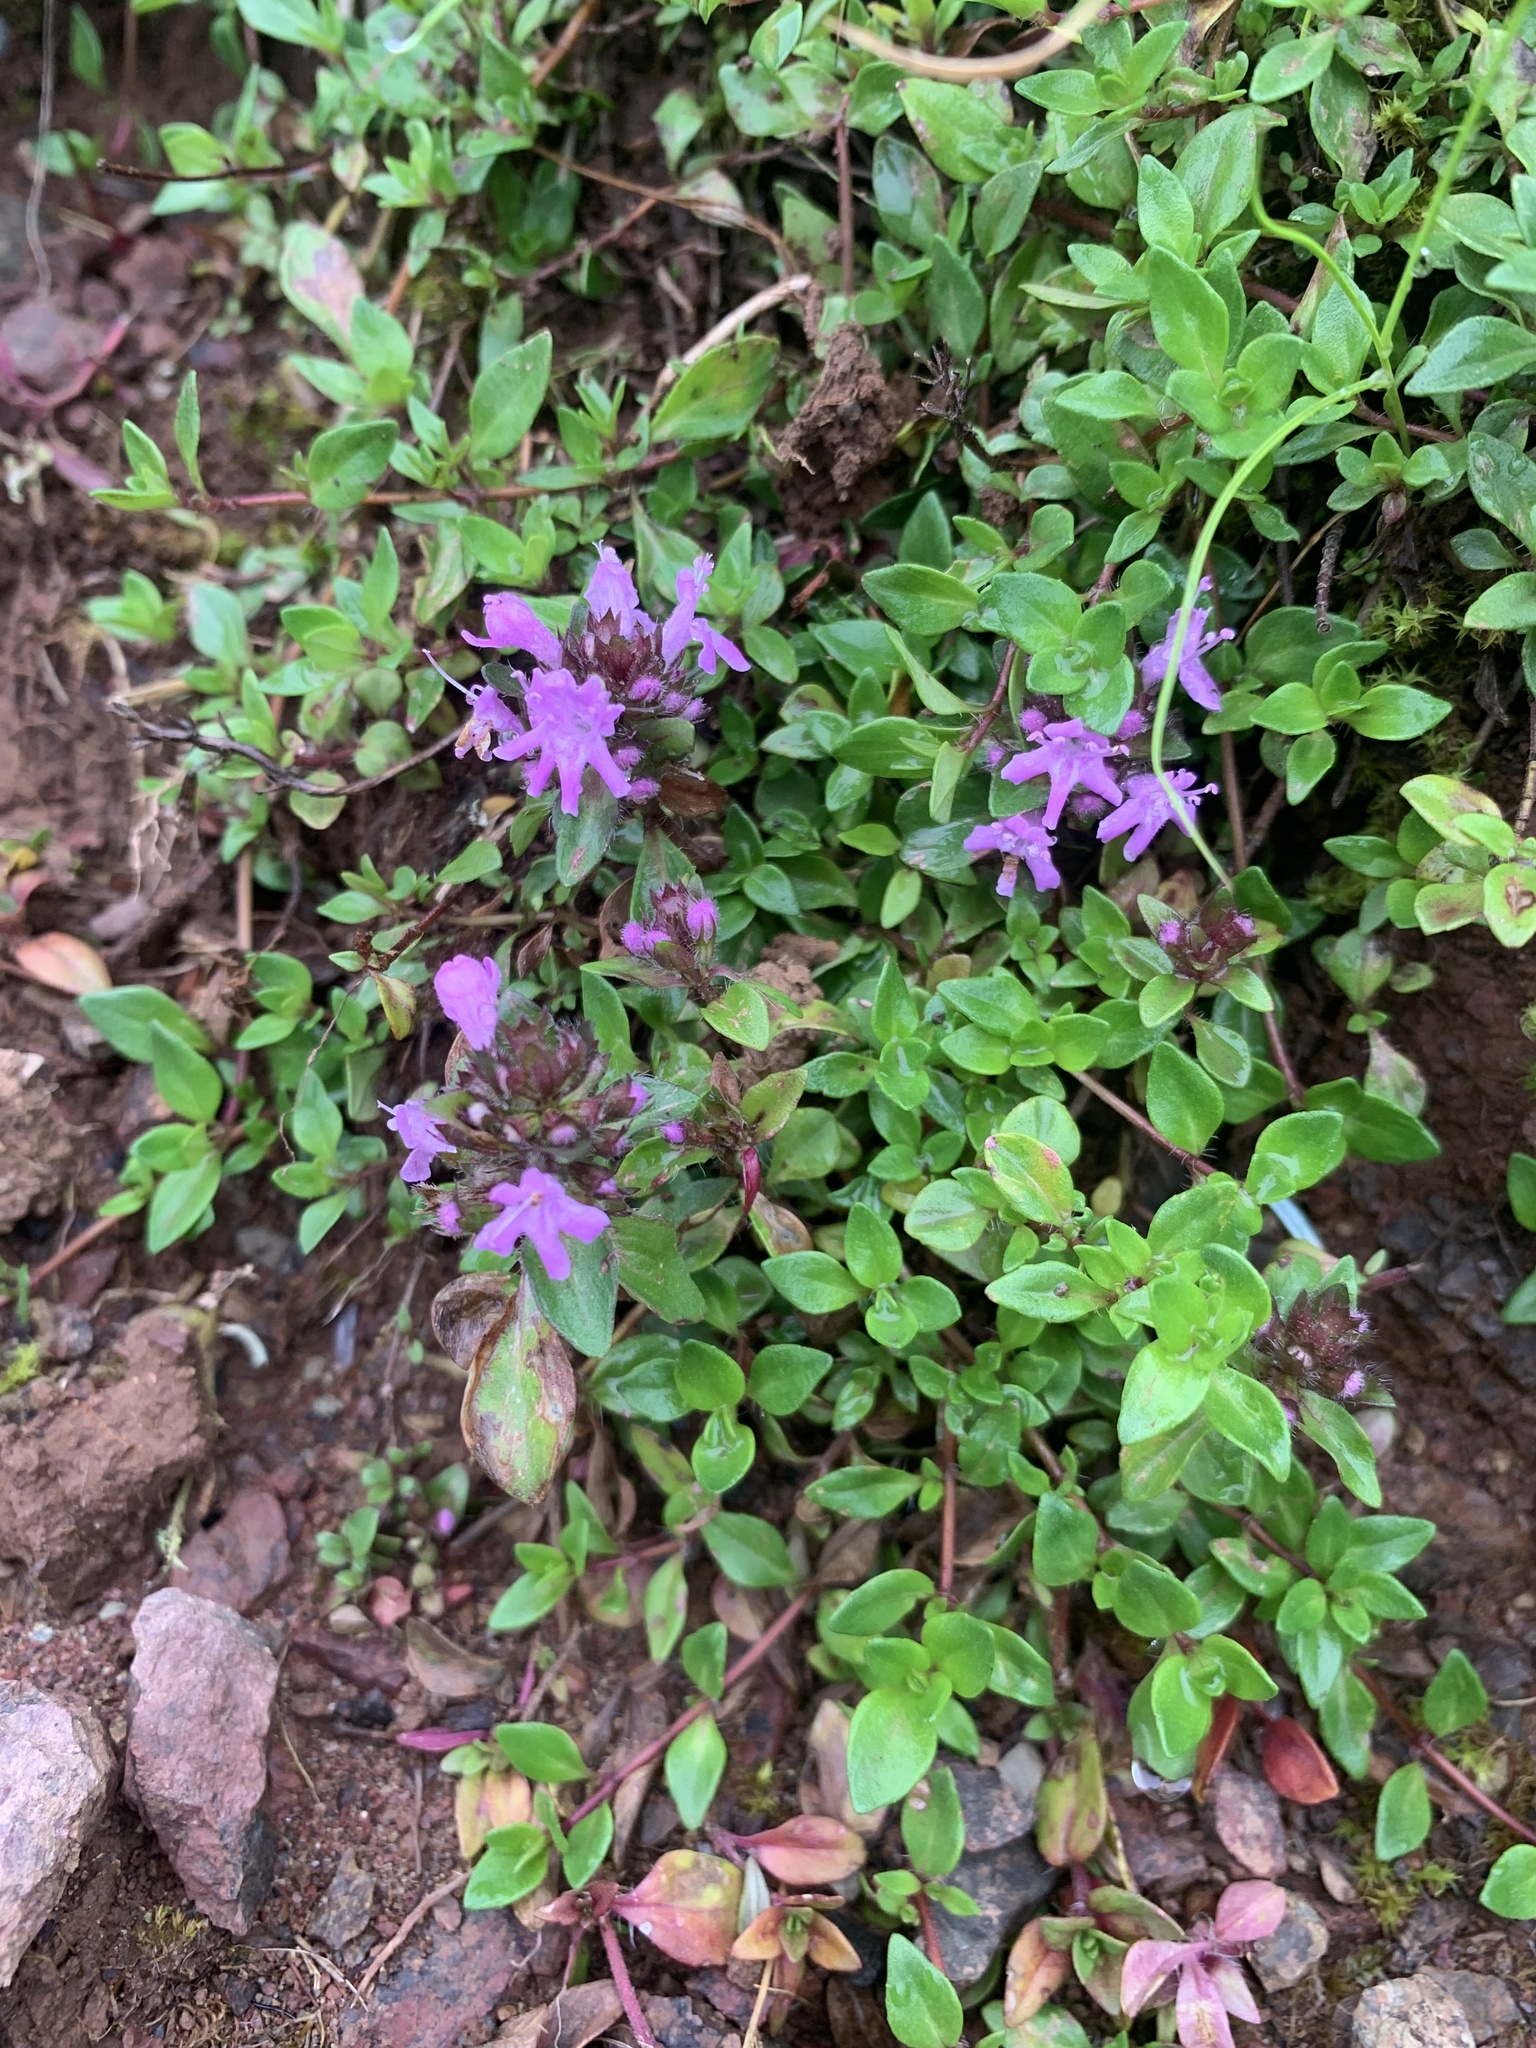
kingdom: Plantae
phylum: Tracheophyta
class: Magnoliopsida
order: Lamiales
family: Lamiaceae
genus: Thymus
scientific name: Thymus quinquecostatus
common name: Japanese thyme
